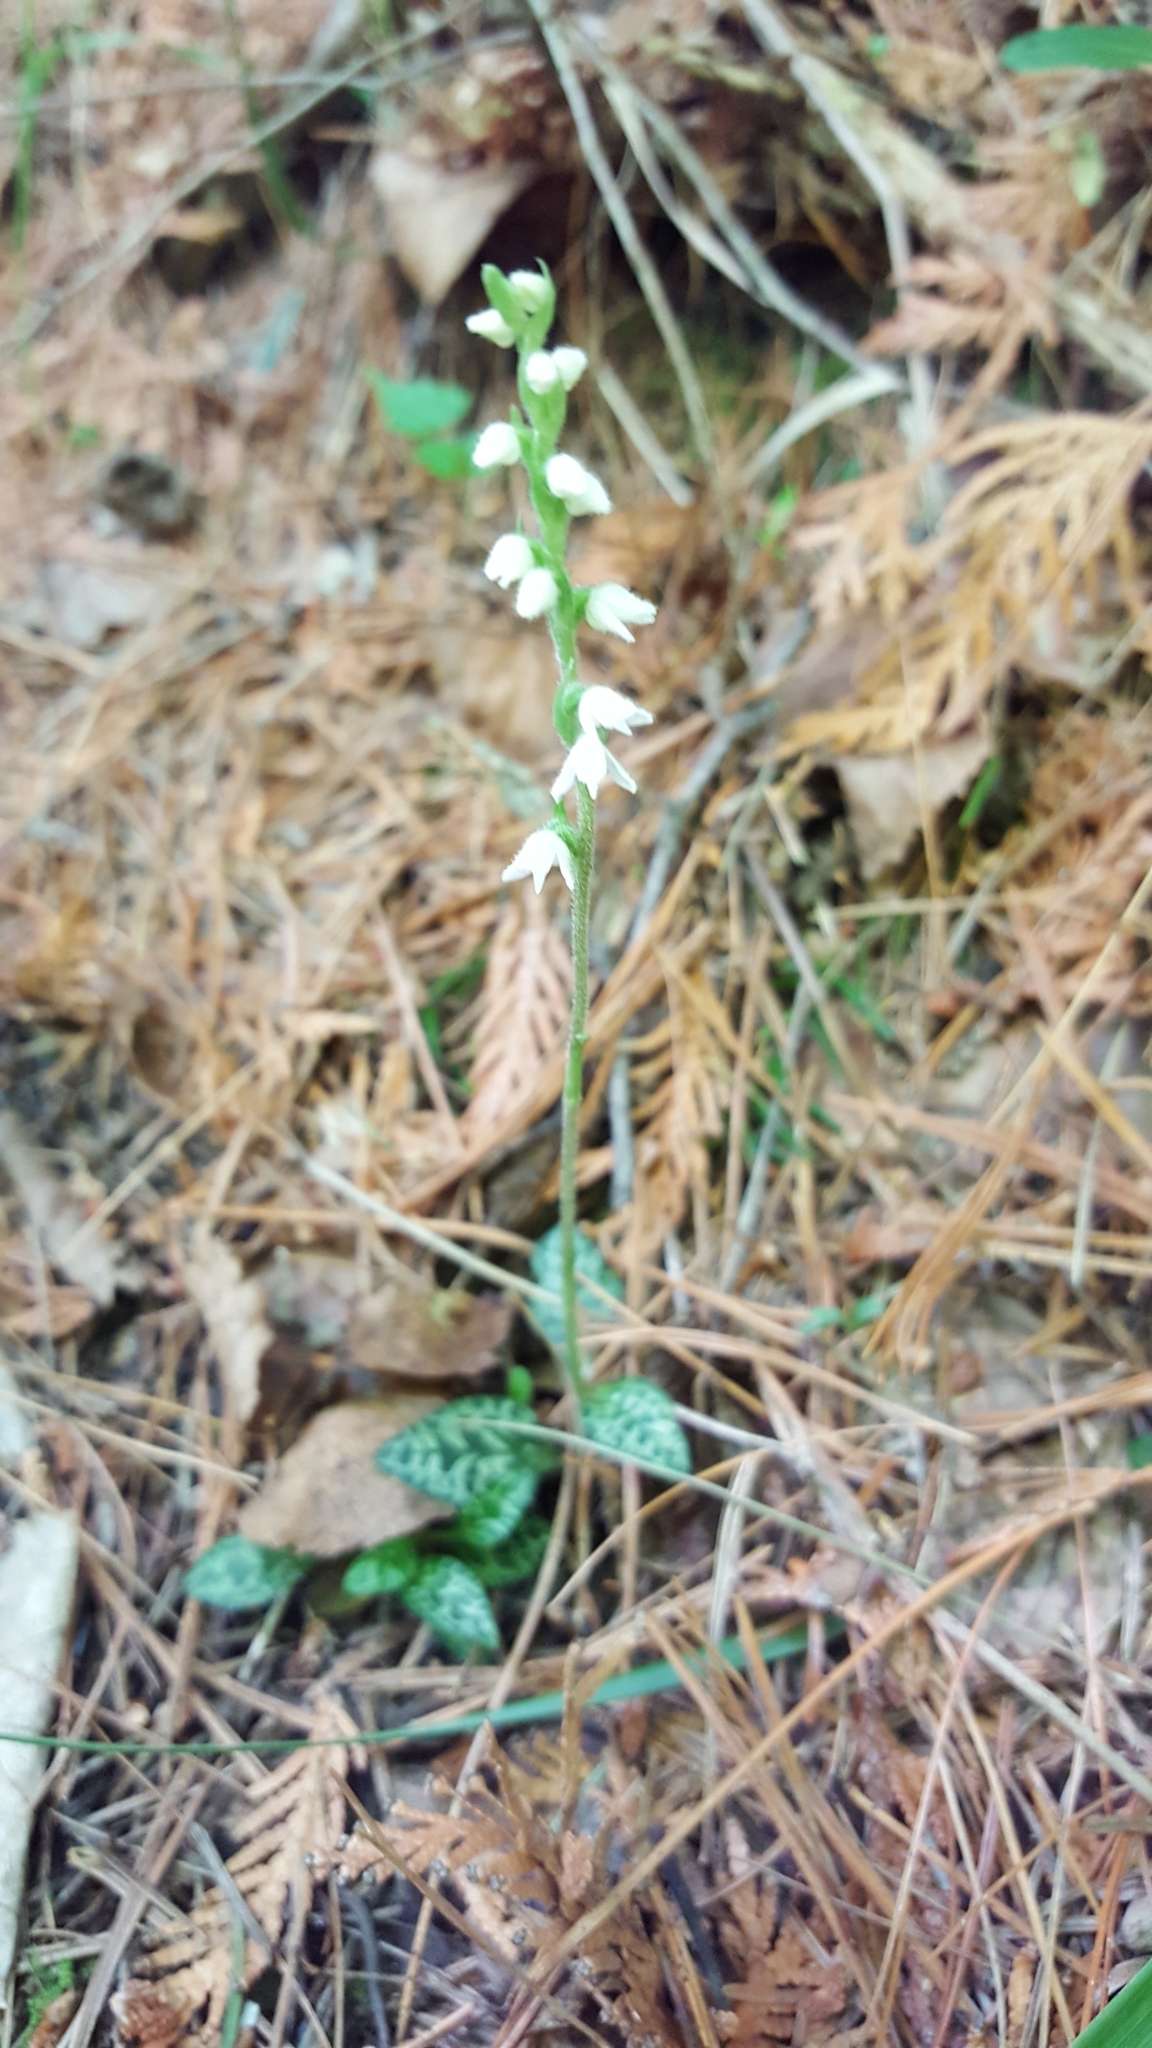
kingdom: Plantae
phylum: Tracheophyta
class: Liliopsida
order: Asparagales
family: Orchidaceae
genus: Goodyera
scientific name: Goodyera repens
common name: Creeping lady's-tresses
